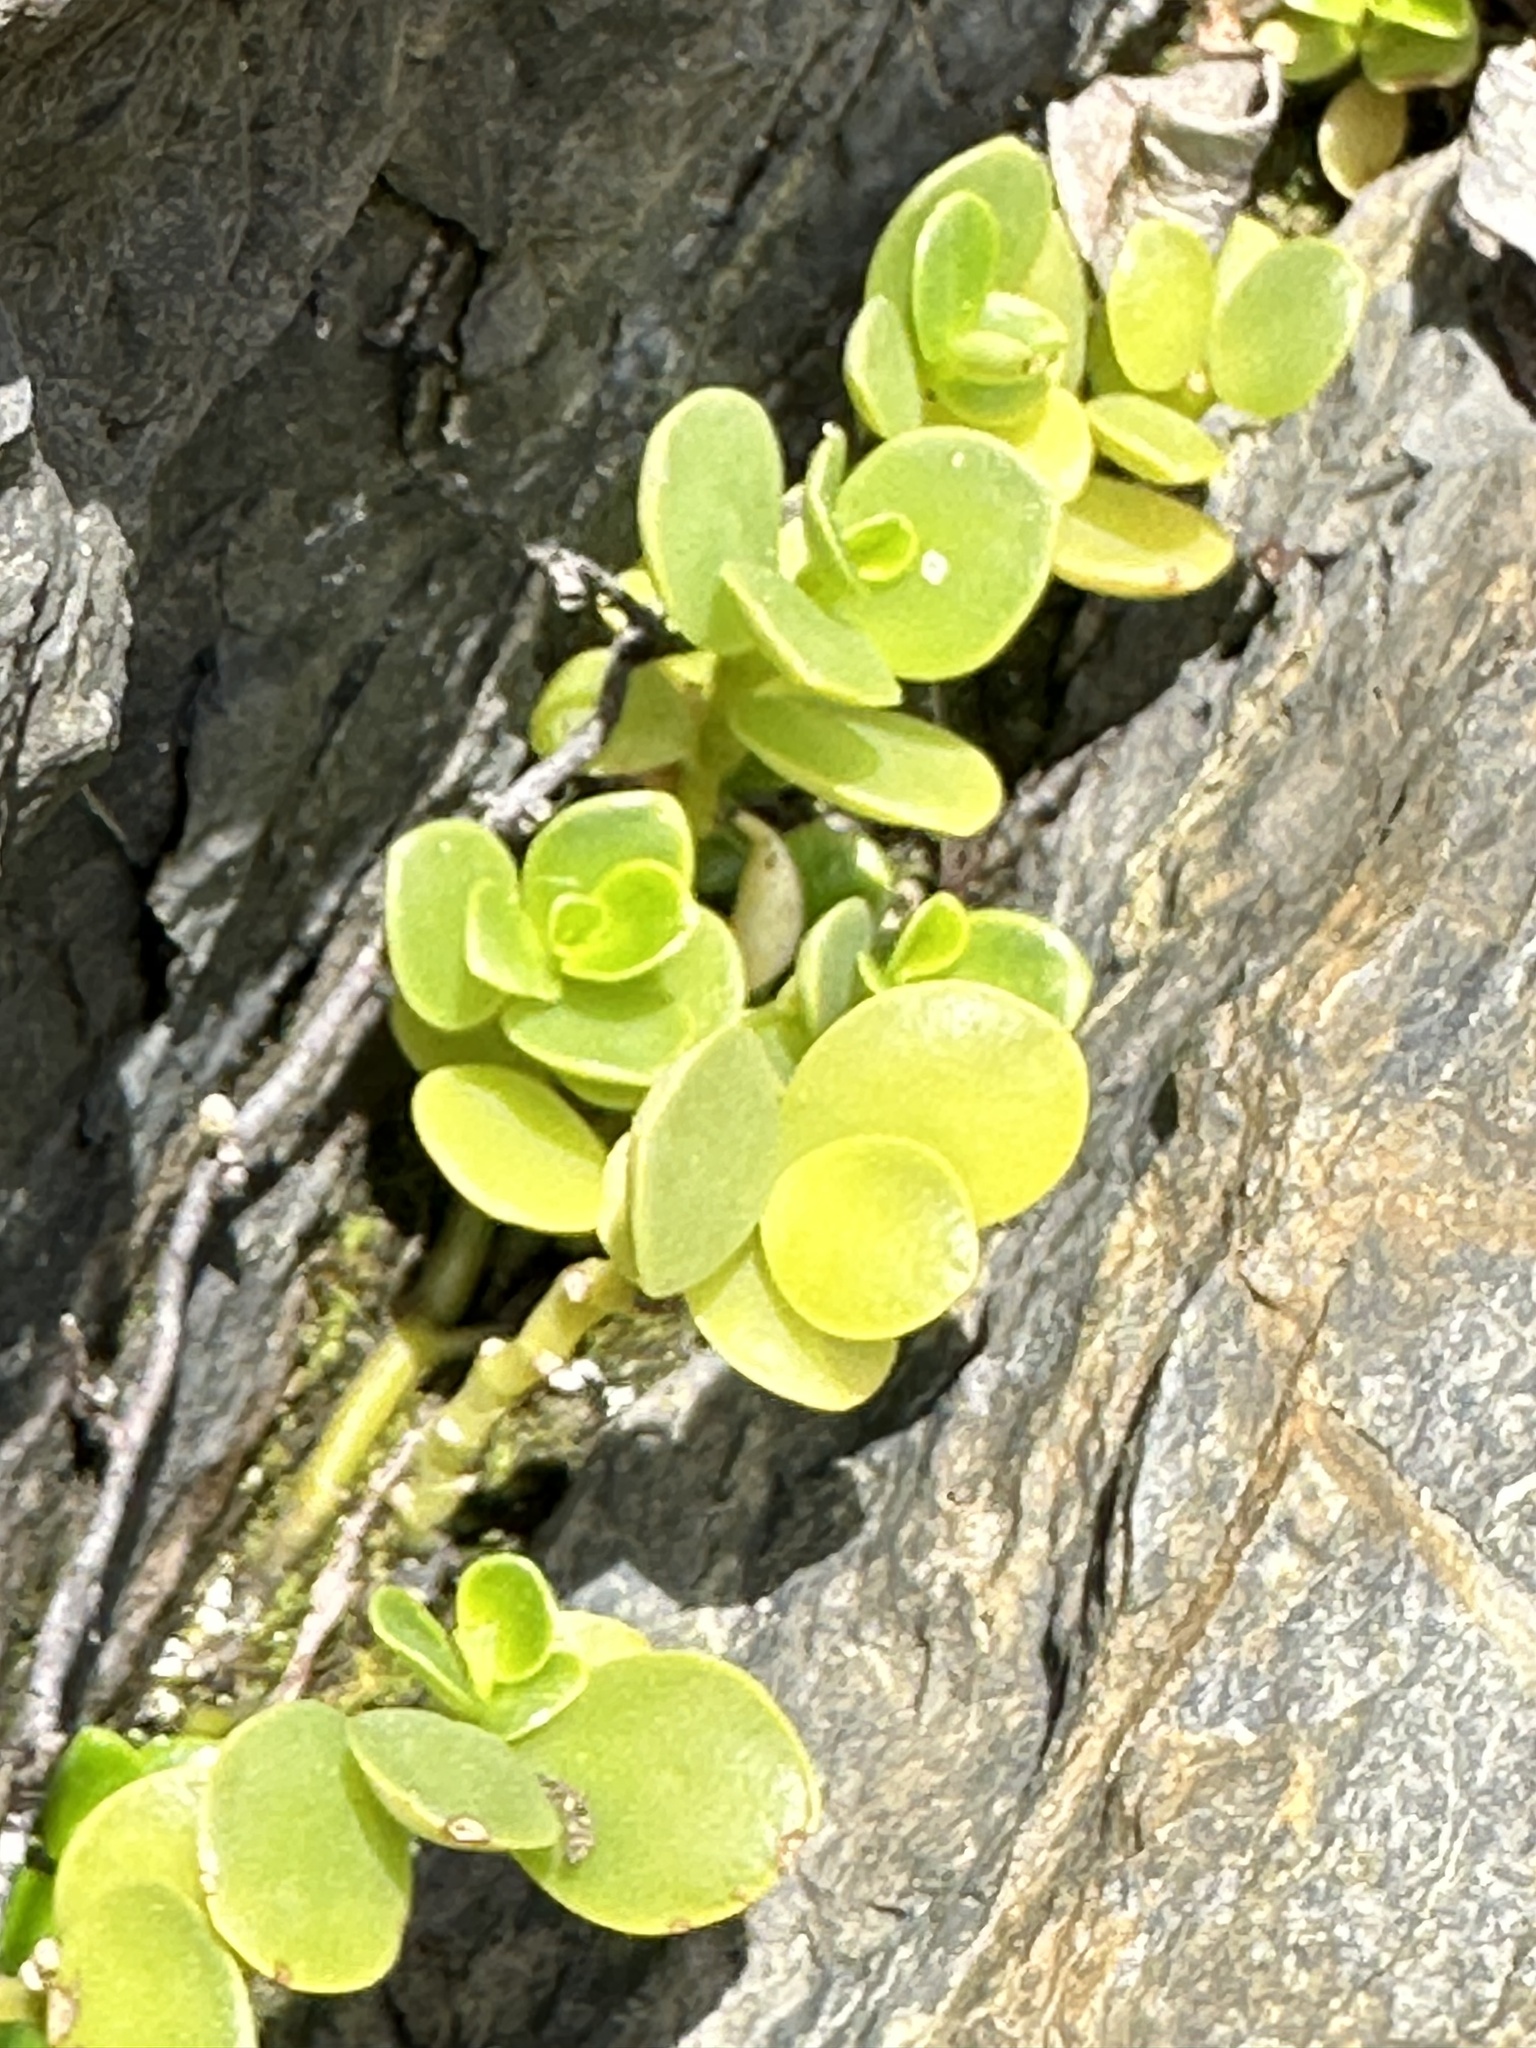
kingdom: Plantae
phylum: Tracheophyta
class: Magnoliopsida
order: Piperales
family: Piperaceae
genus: Peperomia
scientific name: Peperomia urvilleana
